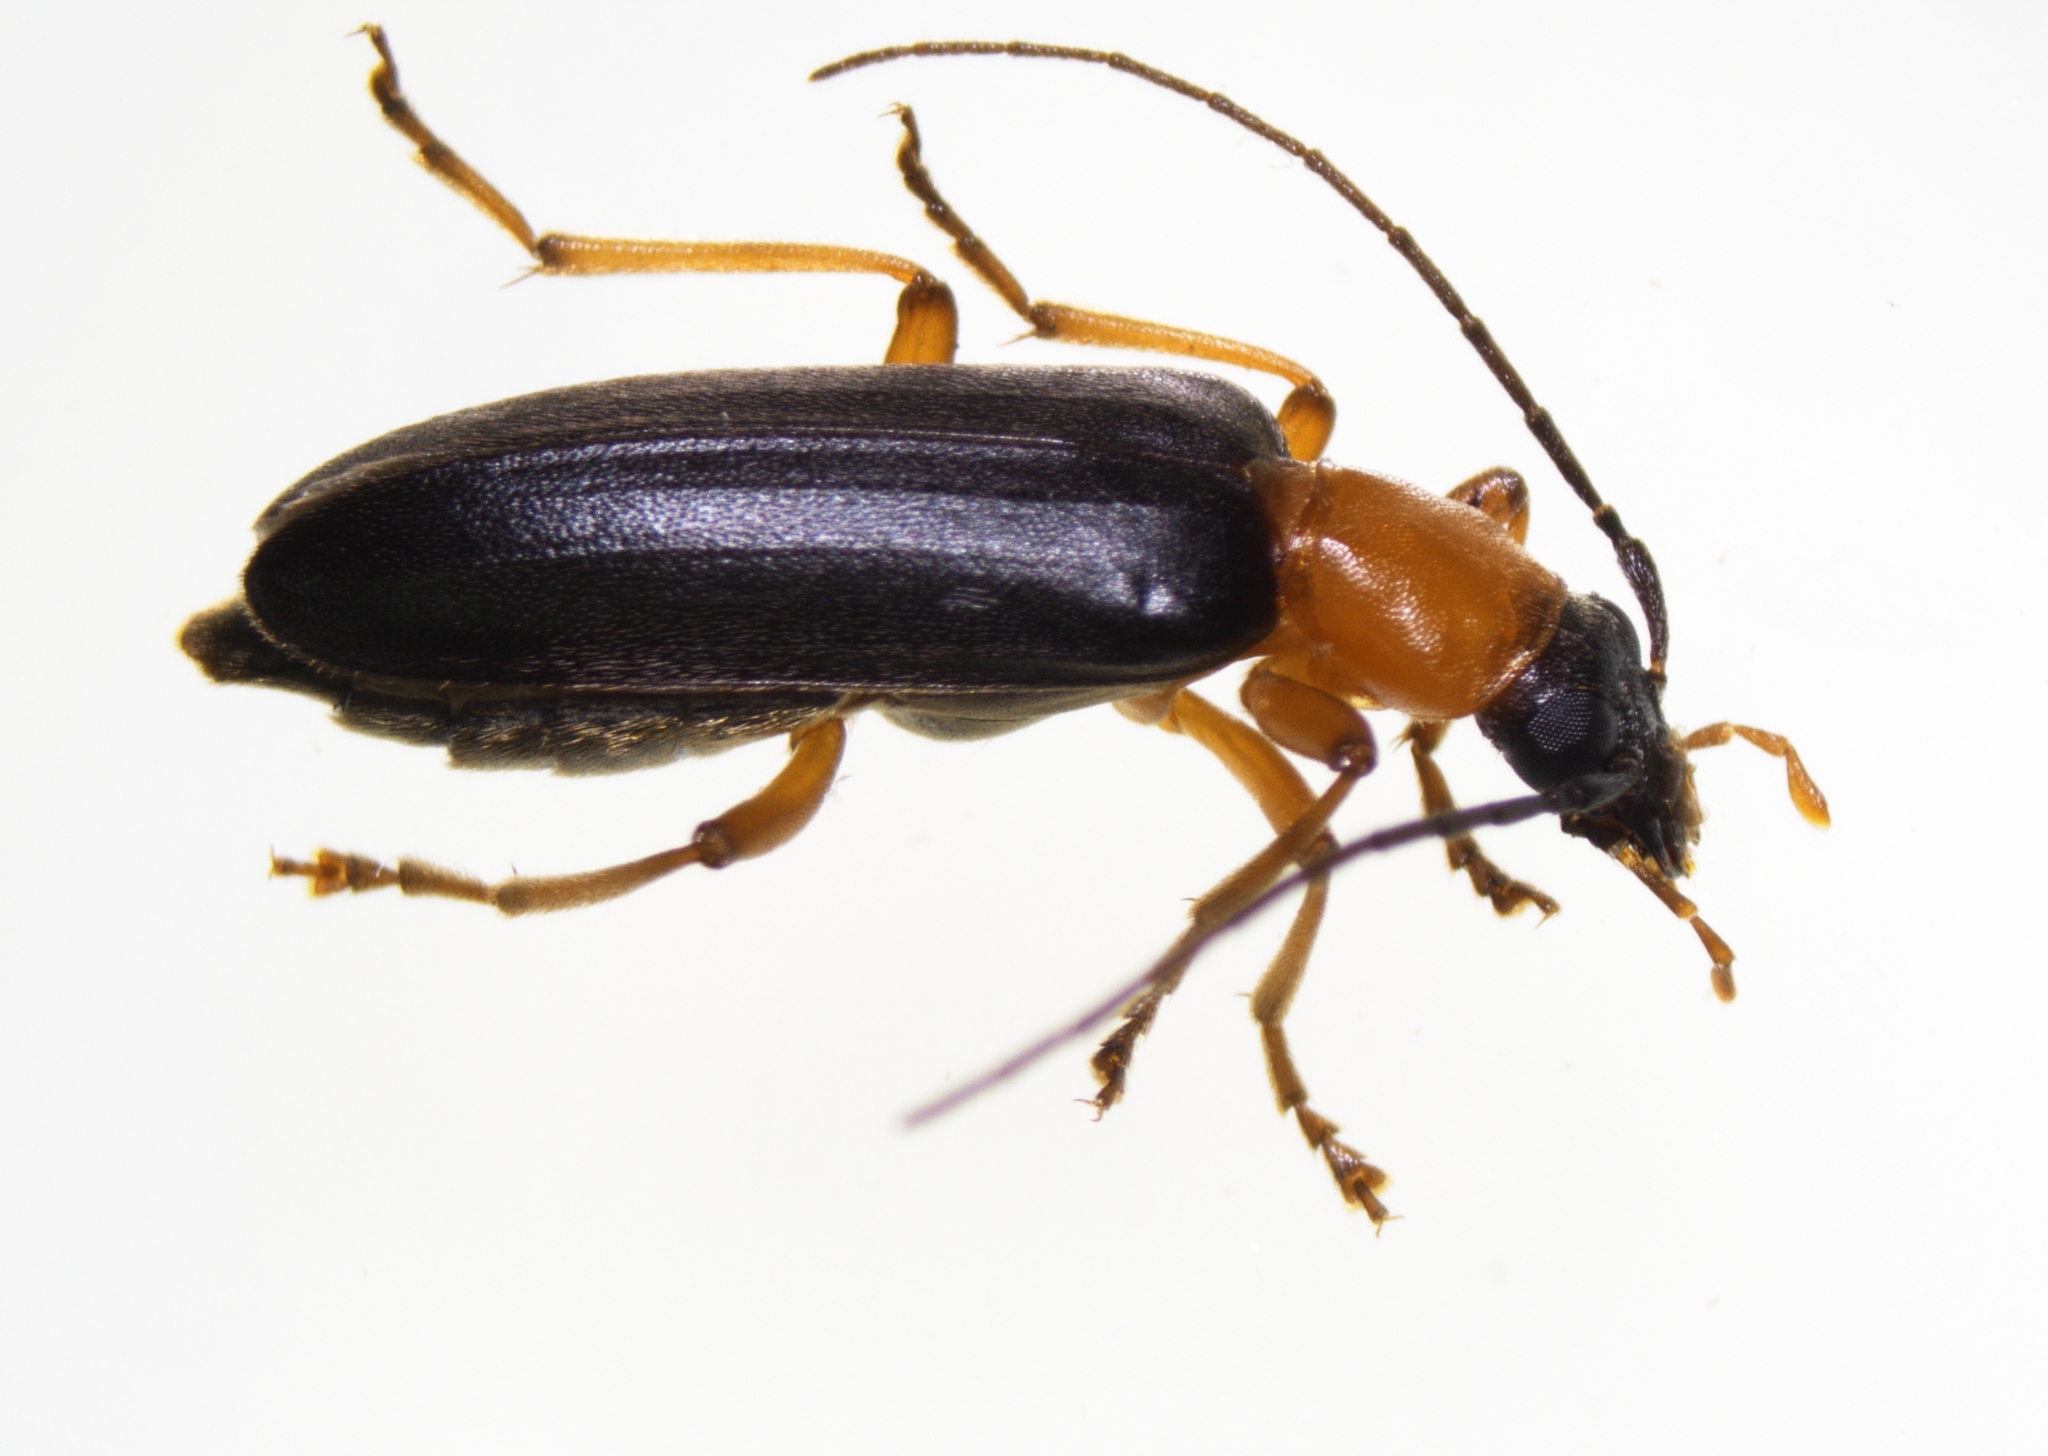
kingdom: Animalia
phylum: Arthropoda
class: Insecta
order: Coleoptera
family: Oedemeridae
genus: Ananca
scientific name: Ananca bicolor
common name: Red-black false blister-beetle
